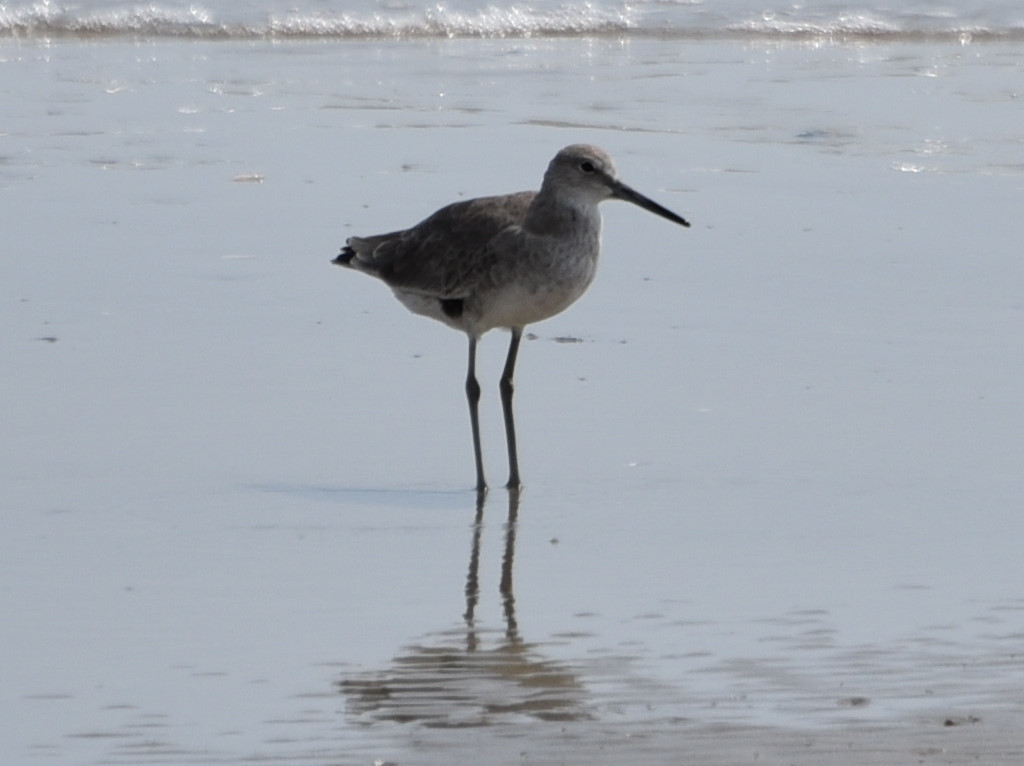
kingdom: Animalia
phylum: Chordata
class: Aves
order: Charadriiformes
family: Scolopacidae
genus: Tringa
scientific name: Tringa semipalmata
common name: Willet
